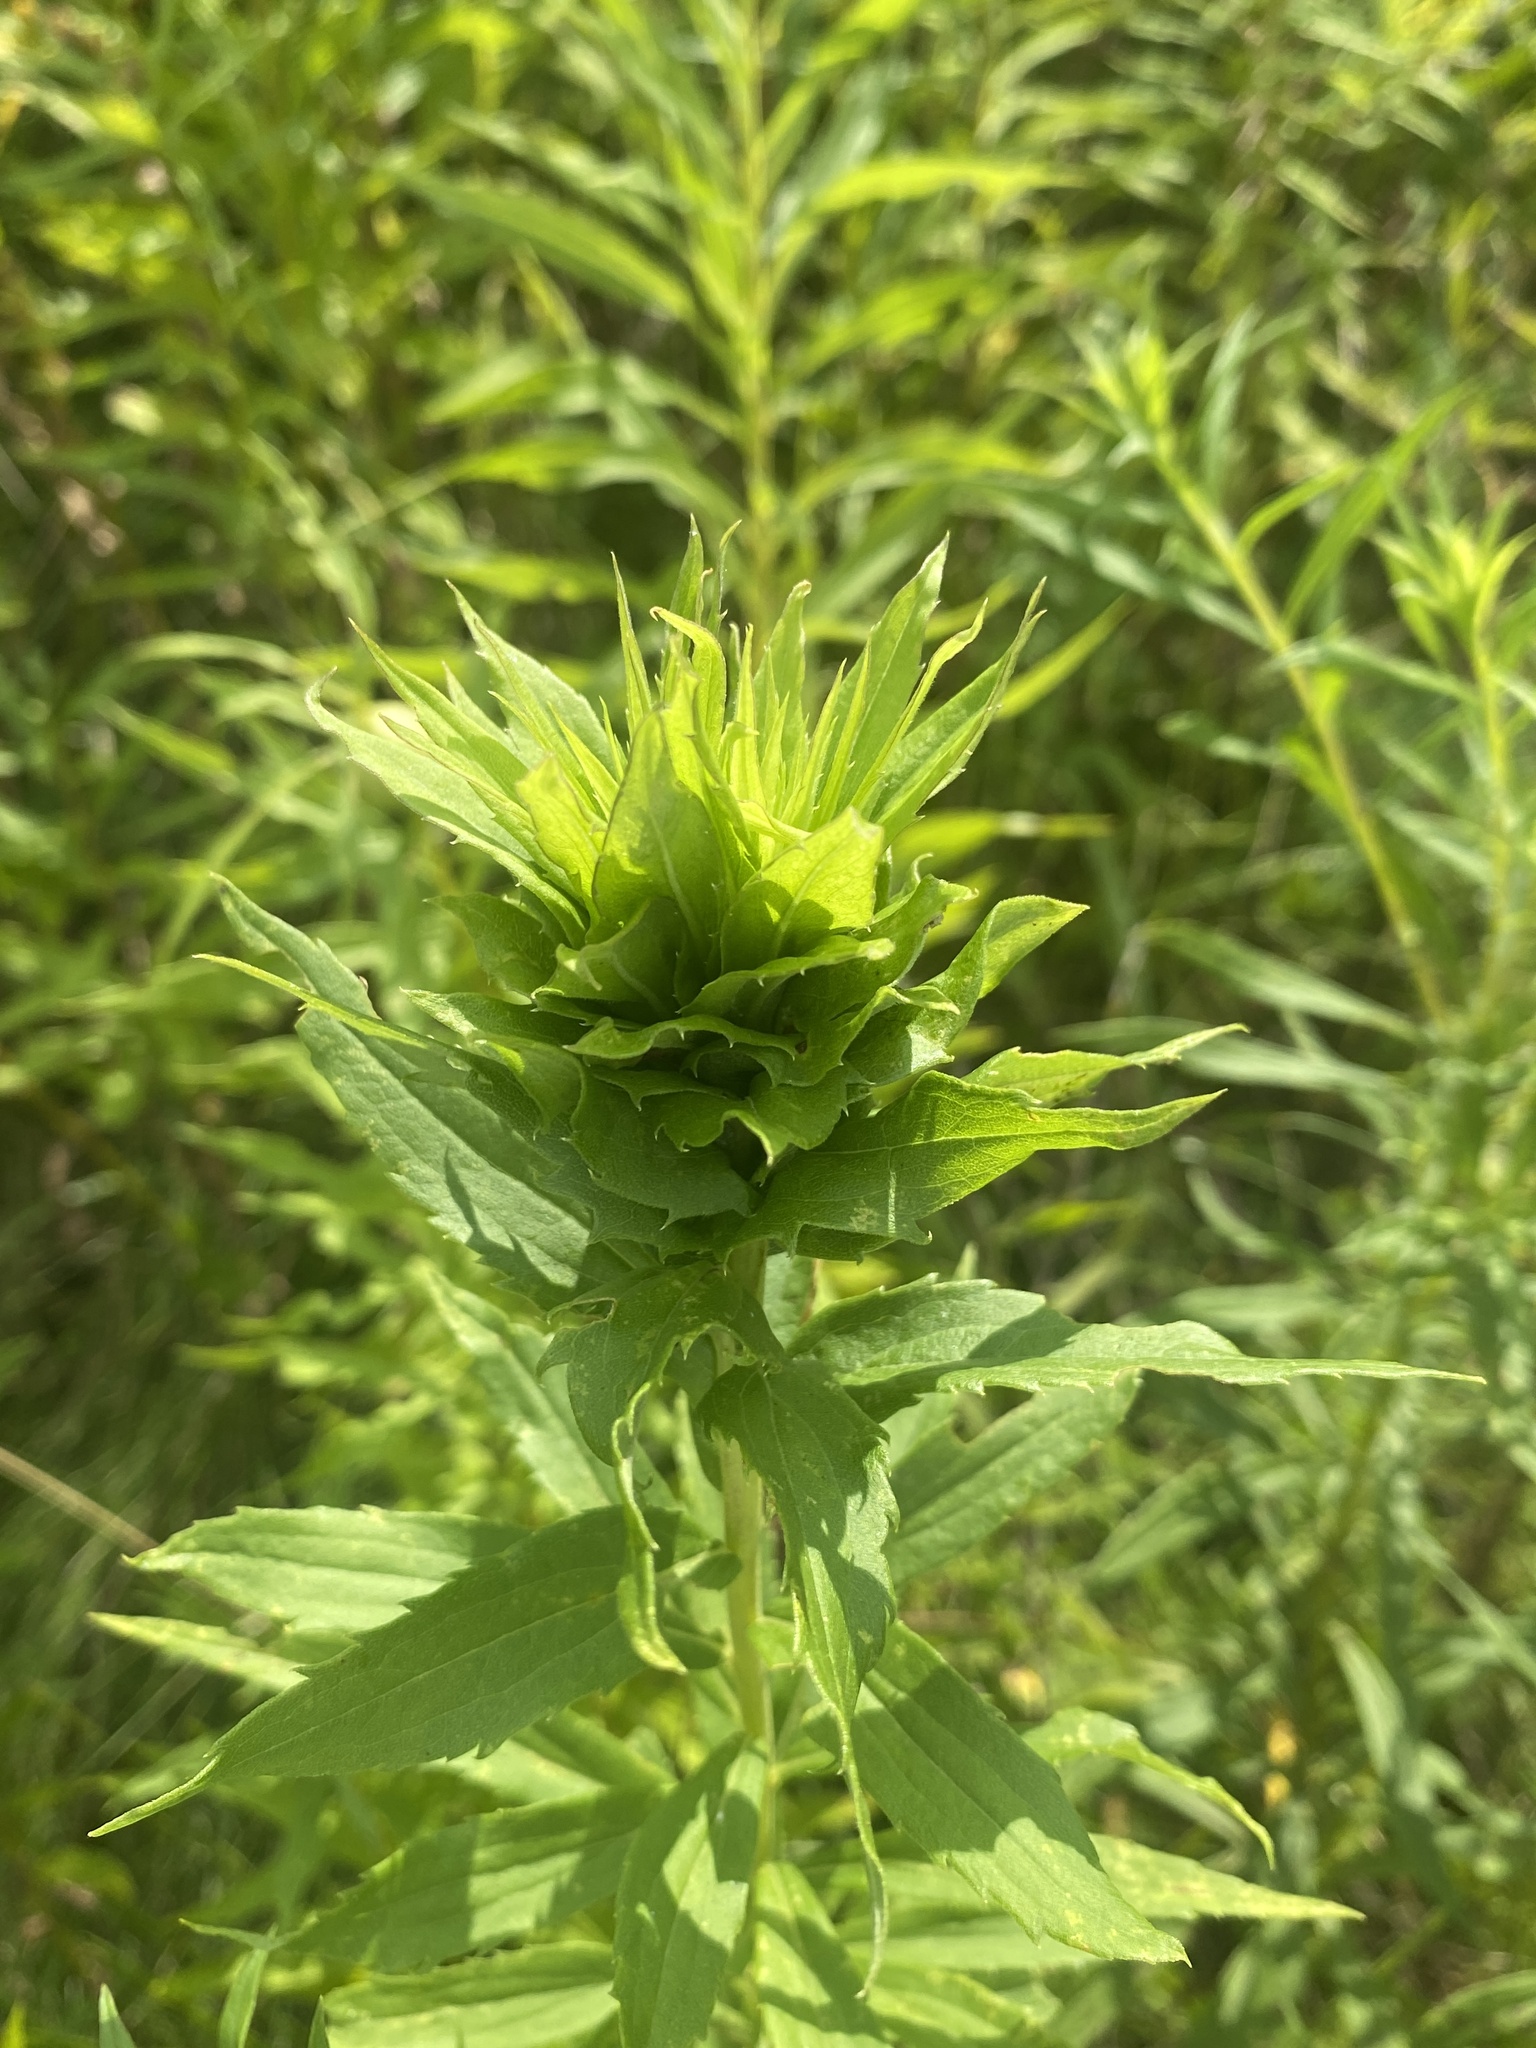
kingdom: Animalia
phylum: Arthropoda
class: Insecta
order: Diptera
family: Cecidomyiidae
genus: Rhopalomyia
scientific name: Rhopalomyia solidaginis
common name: Goldenrod bunch gall midge
